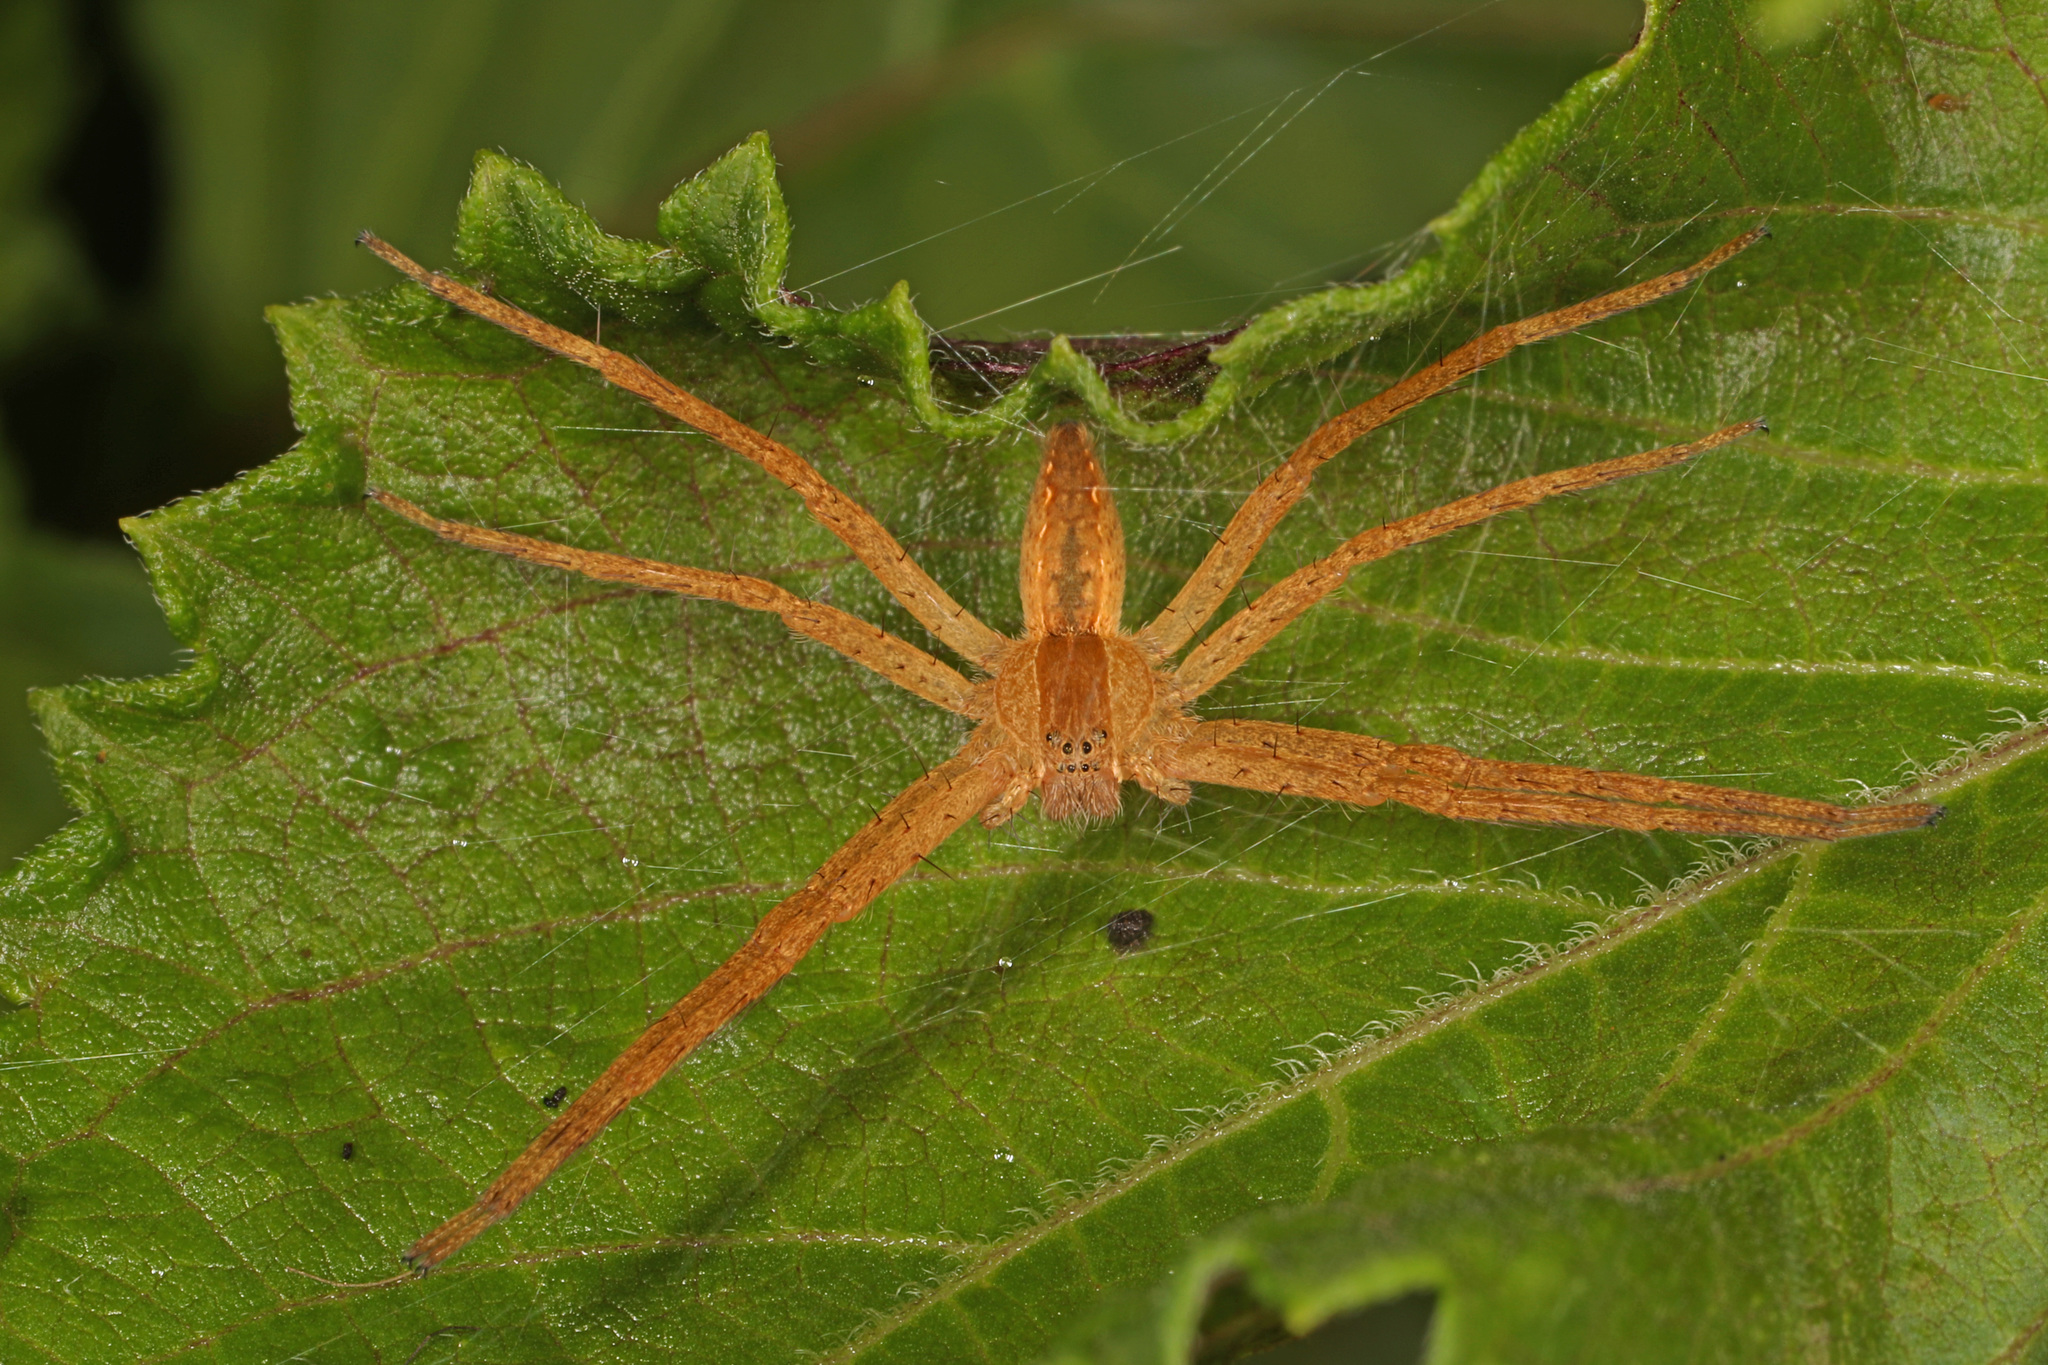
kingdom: Animalia
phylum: Arthropoda
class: Arachnida
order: Araneae
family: Pisauridae
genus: Pisaurina
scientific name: Pisaurina mira
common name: American nursery web spider
